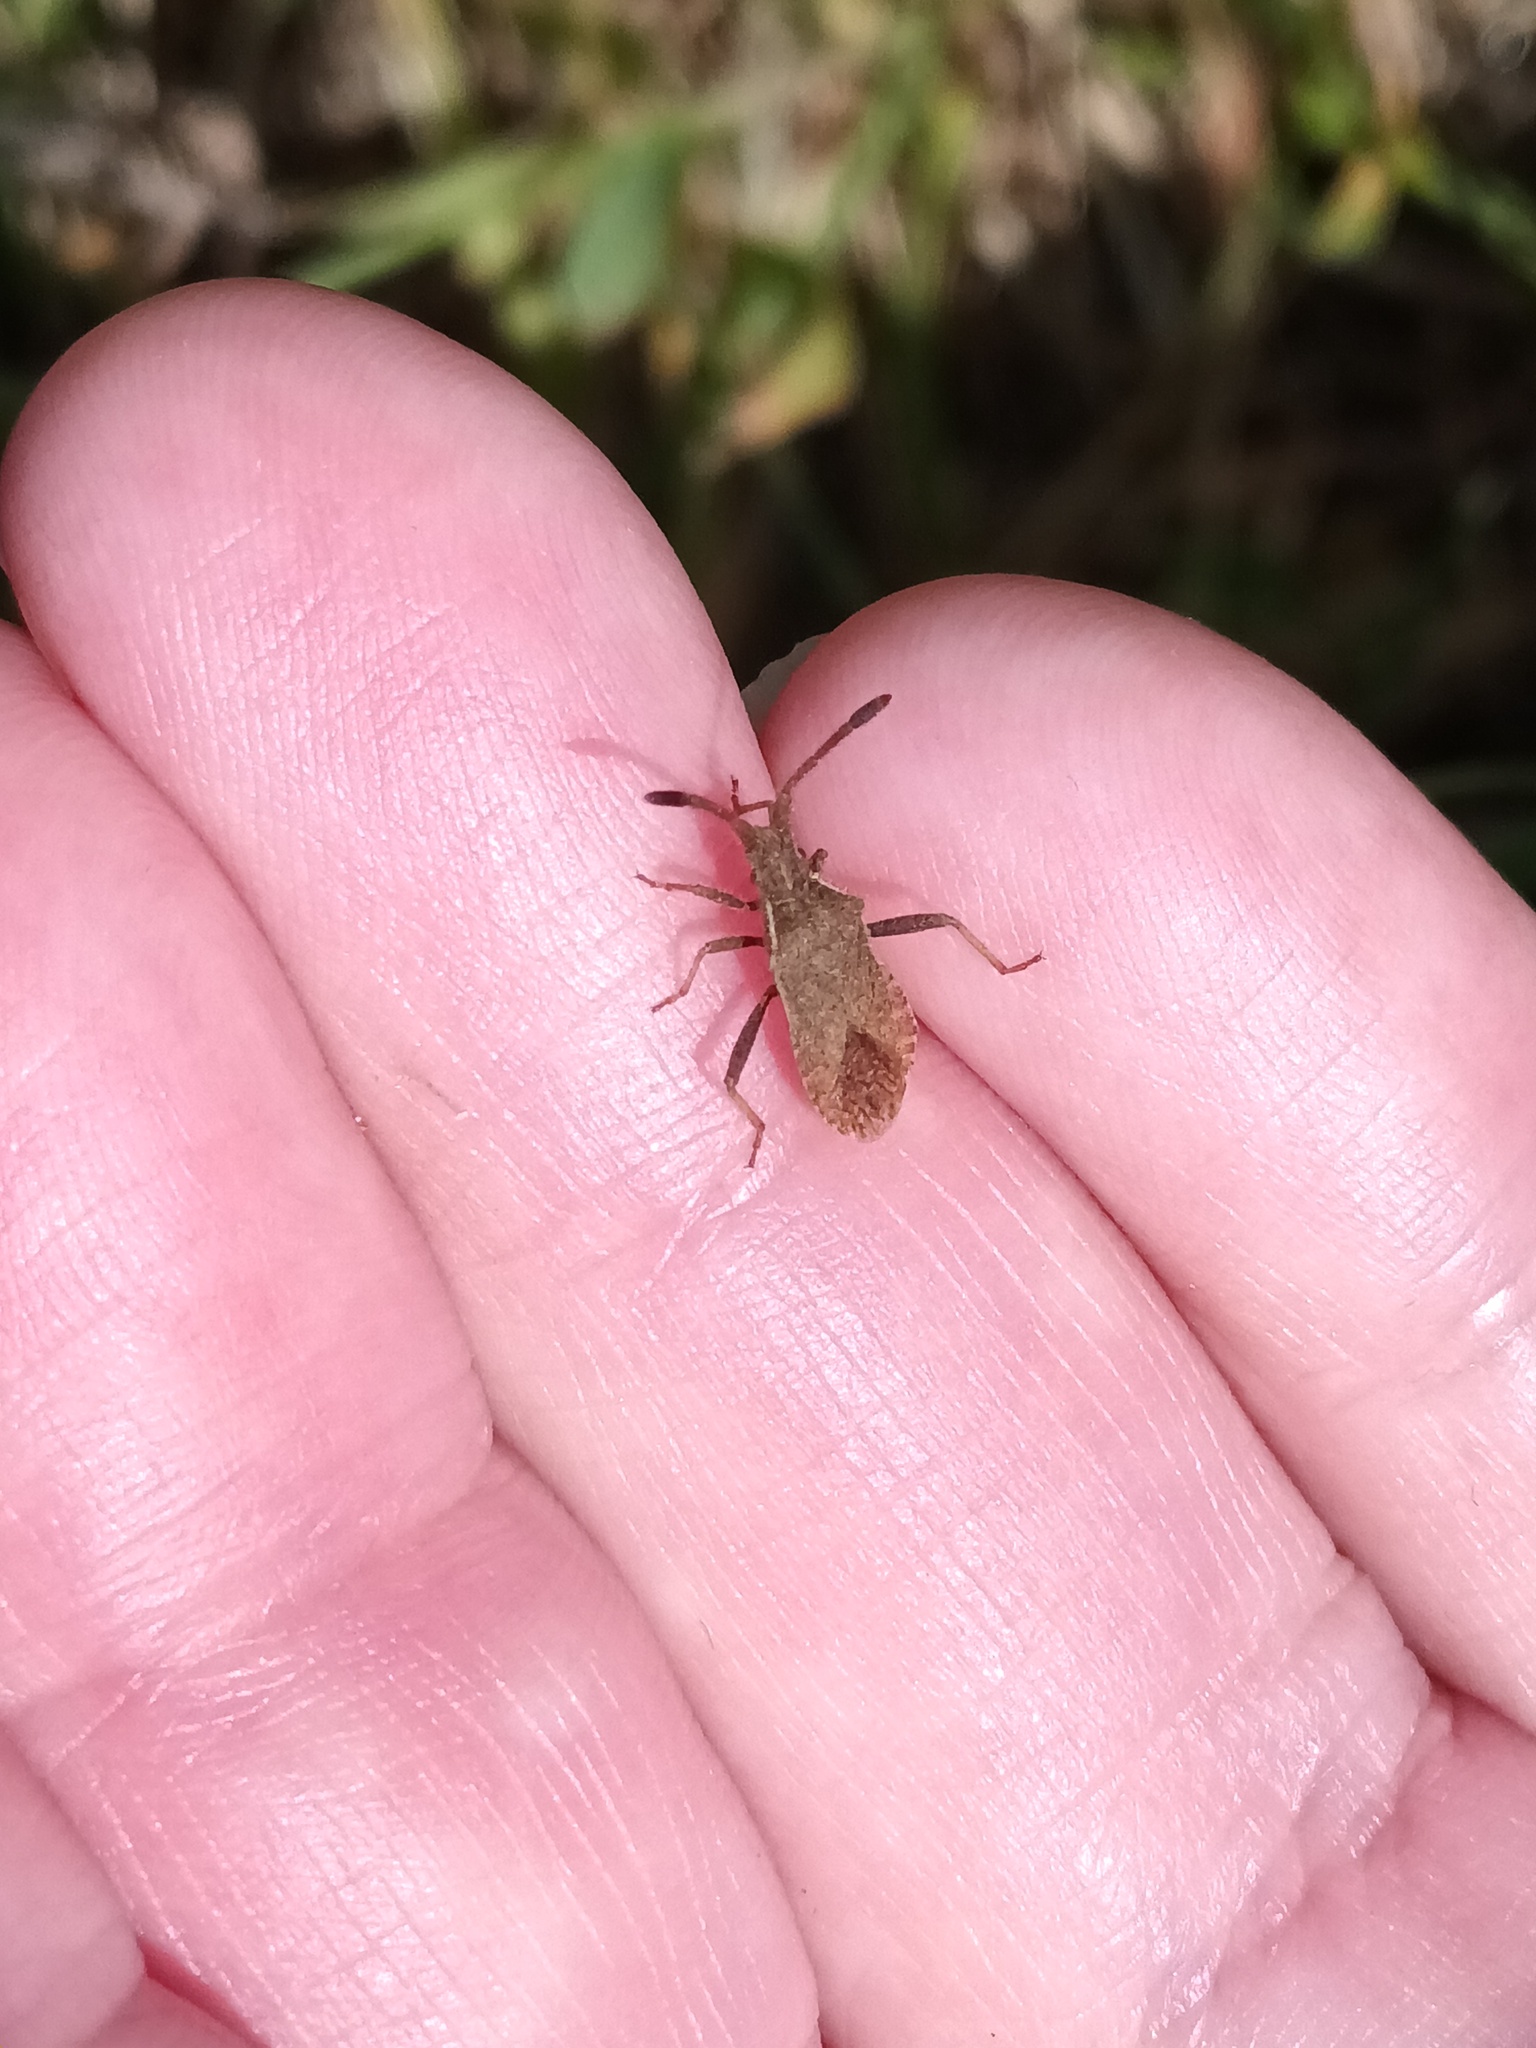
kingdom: Animalia
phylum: Arthropoda
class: Insecta
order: Hemiptera
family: Coreidae
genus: Coriomeris
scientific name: Coriomeris denticulatus
